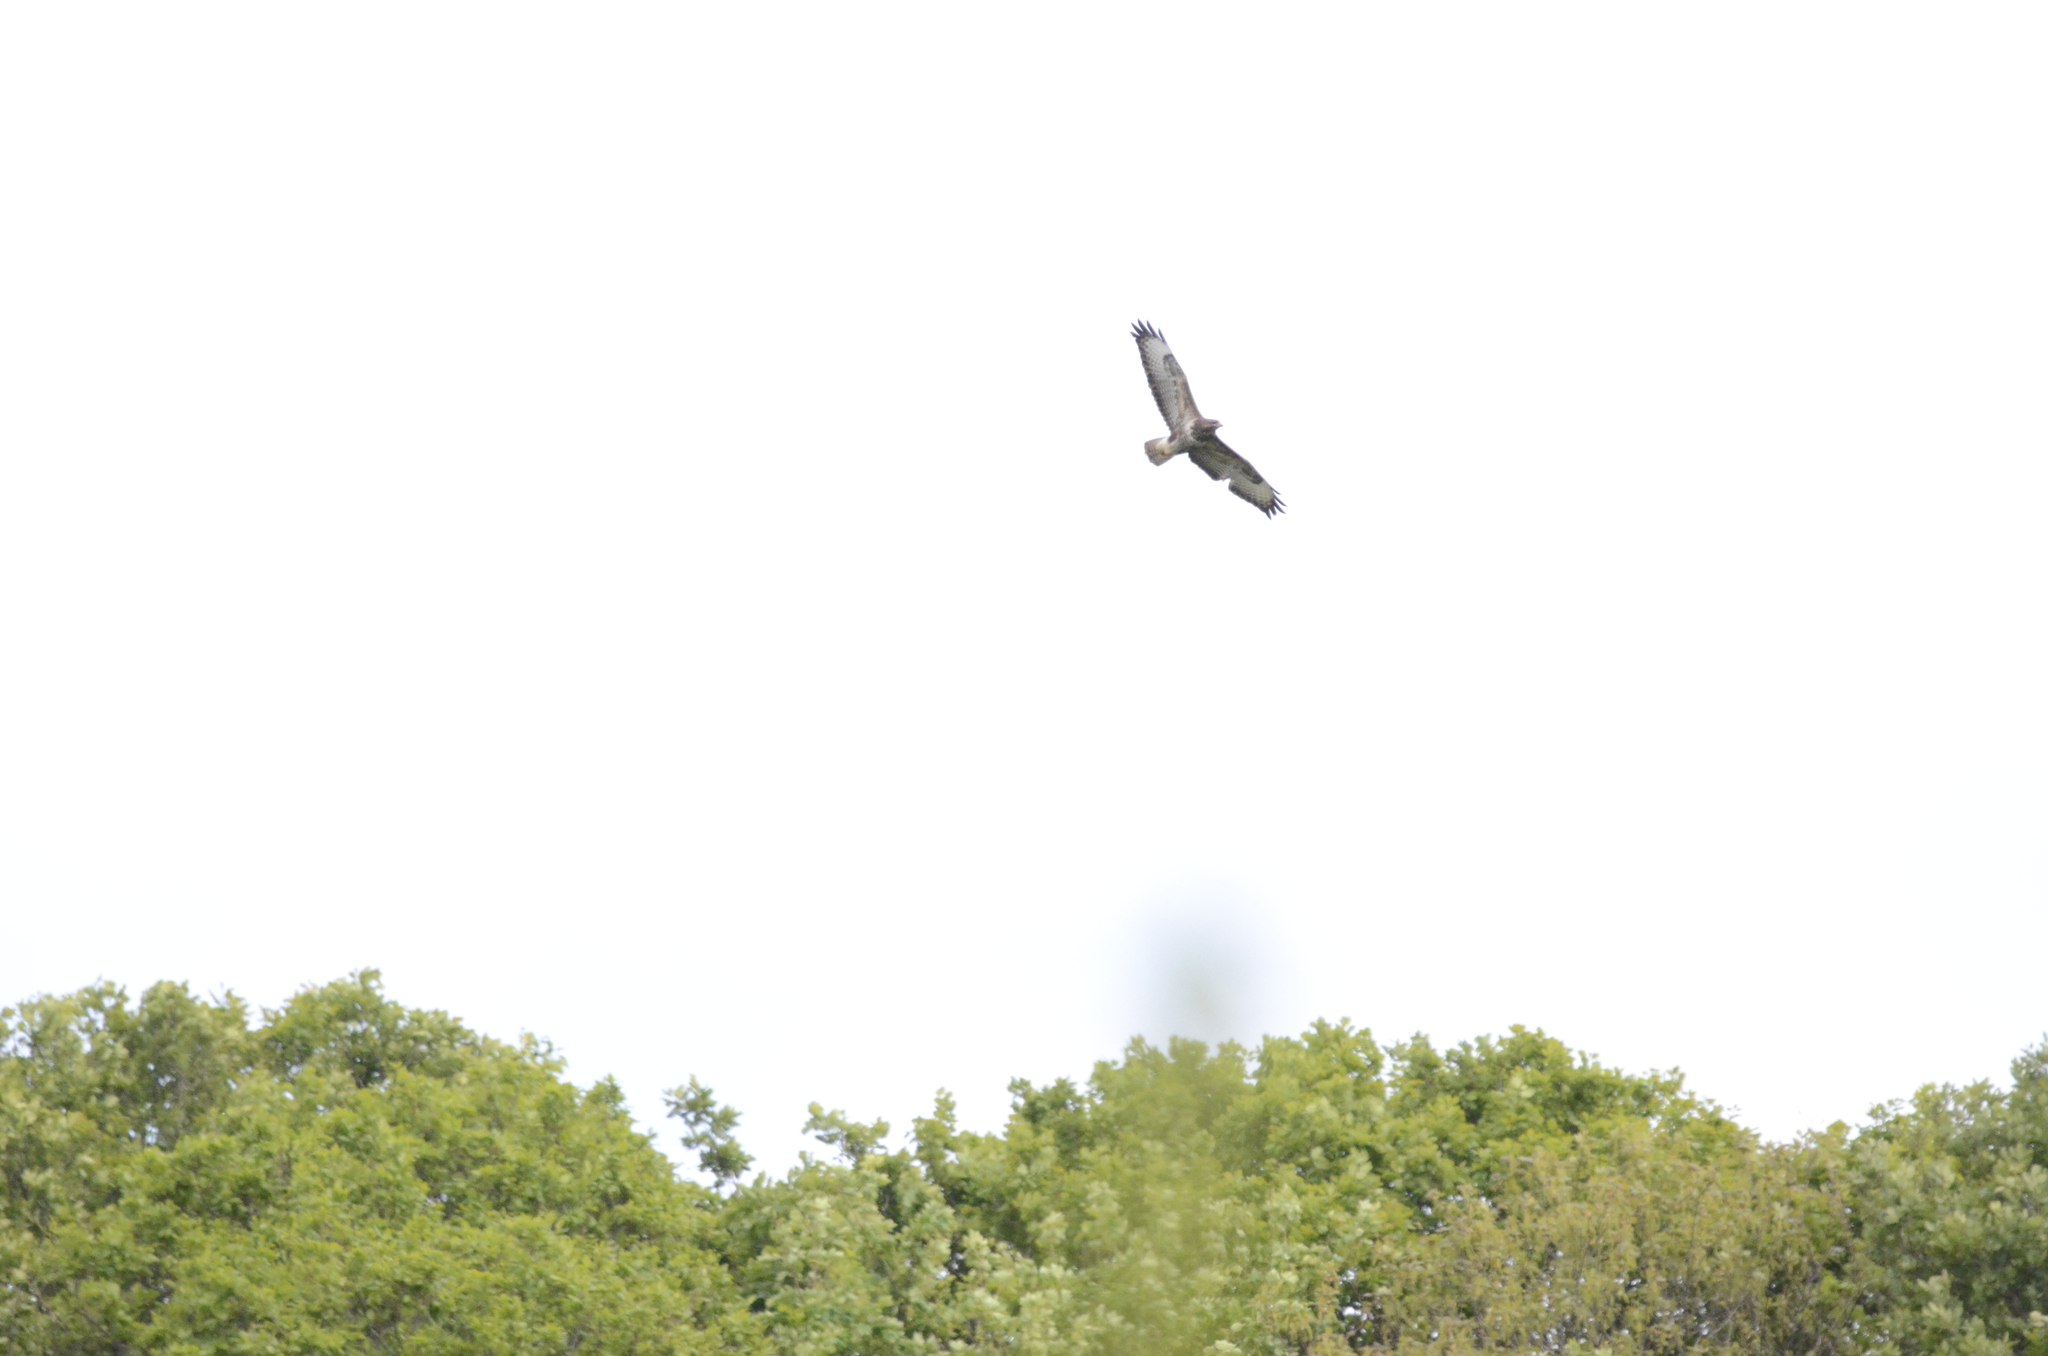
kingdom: Animalia
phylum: Chordata
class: Aves
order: Accipitriformes
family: Accipitridae
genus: Buteo
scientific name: Buteo buteo
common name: Common buzzard
